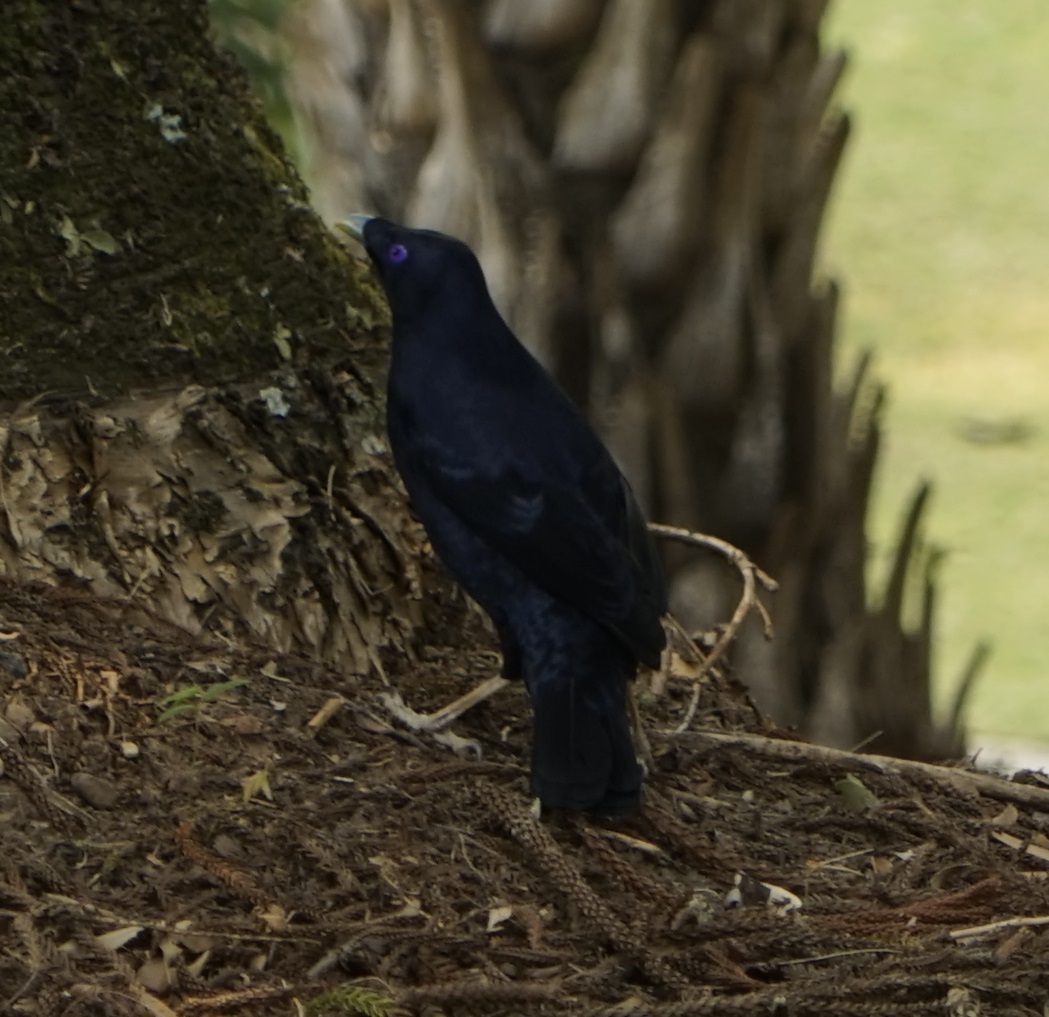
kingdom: Animalia
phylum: Chordata
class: Aves
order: Passeriformes
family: Ptilonorhynchidae
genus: Ptilonorhynchus
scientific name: Ptilonorhynchus violaceus
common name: Satin bowerbird
